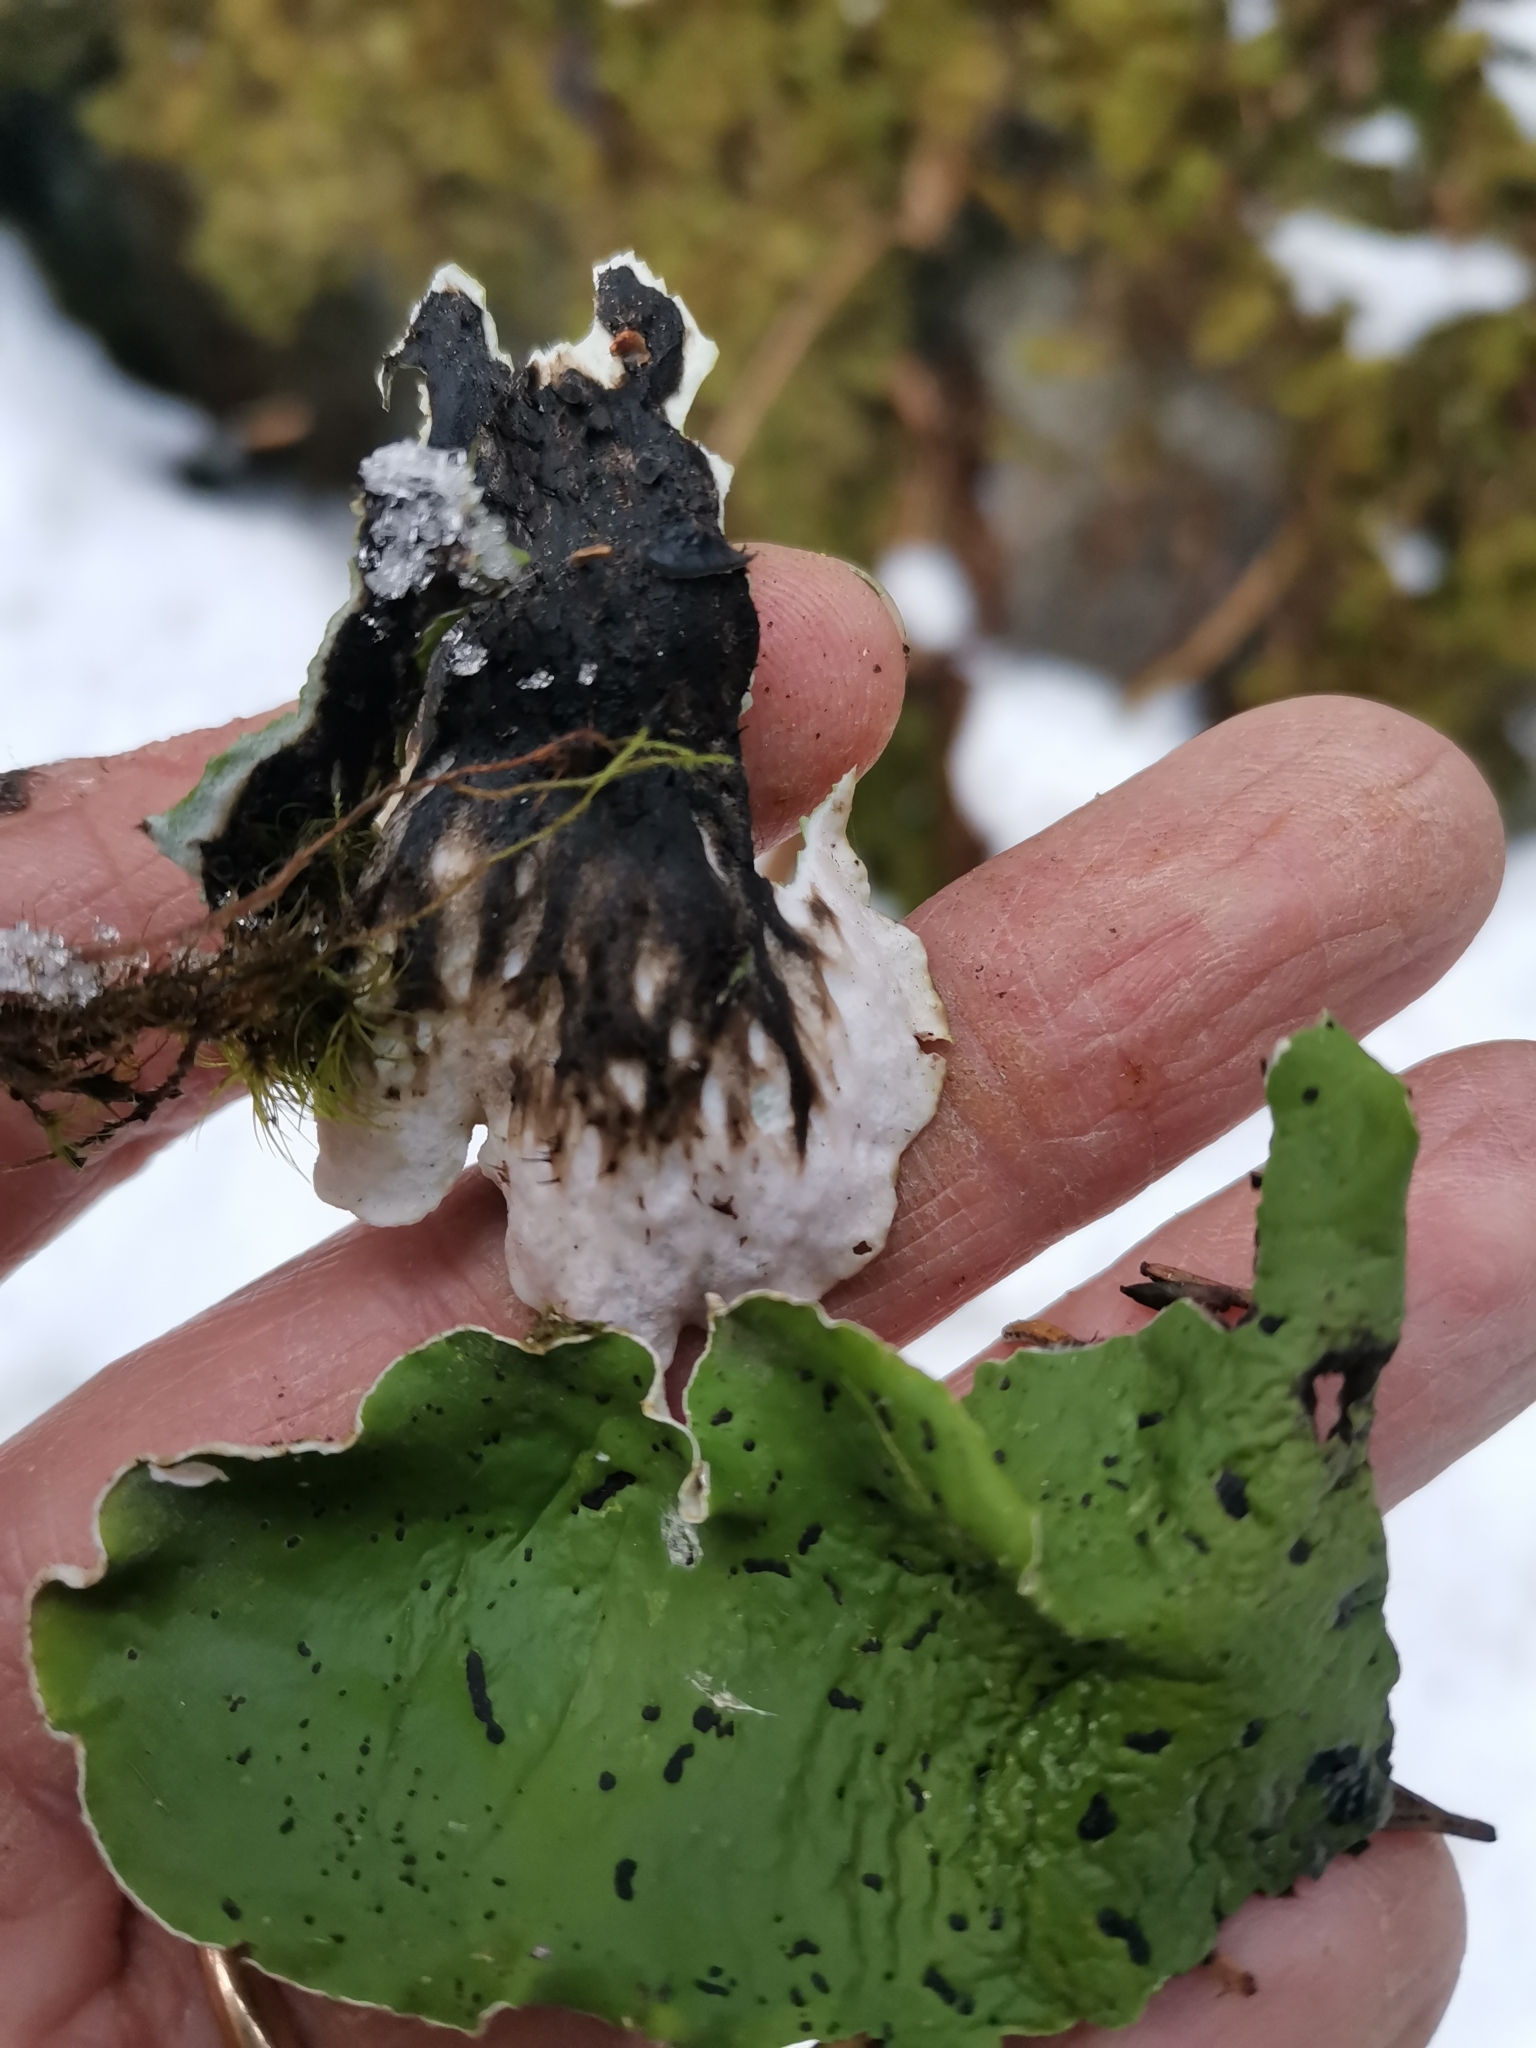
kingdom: Fungi
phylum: Ascomycota
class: Lecanoromycetes
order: Peltigerales
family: Peltigeraceae
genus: Peltigera
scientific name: Peltigera aphthosa
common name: Common freckle pelt lichen
